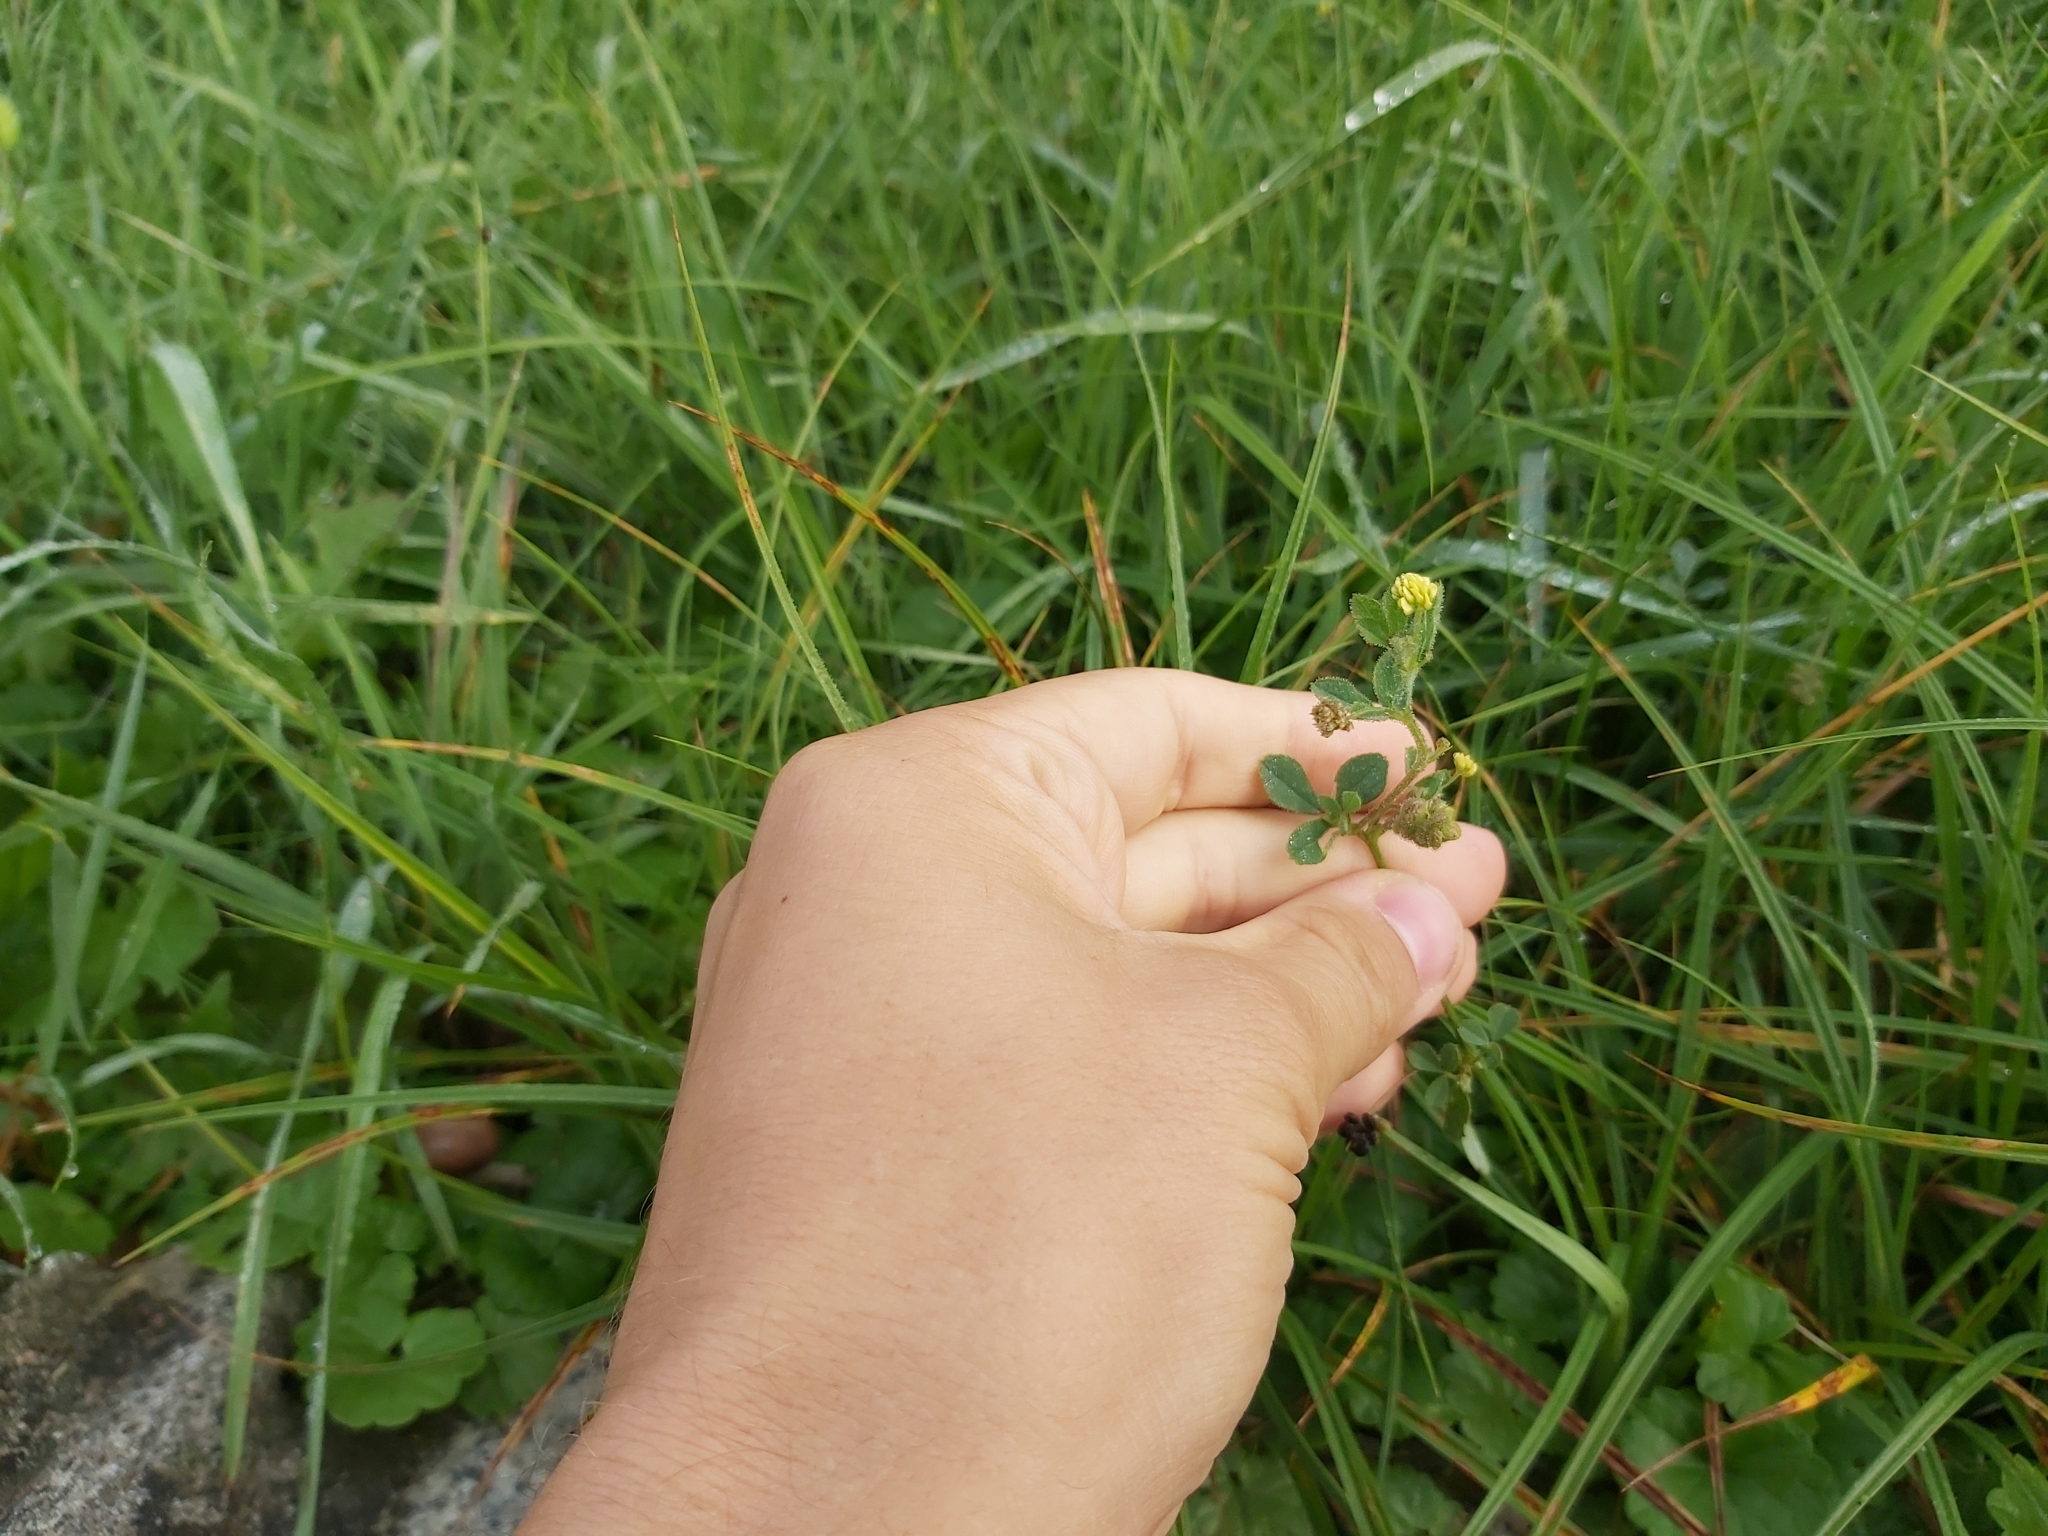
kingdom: Plantae
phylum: Tracheophyta
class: Magnoliopsida
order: Fabales
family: Fabaceae
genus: Medicago
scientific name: Medicago lupulina
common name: Black medick
